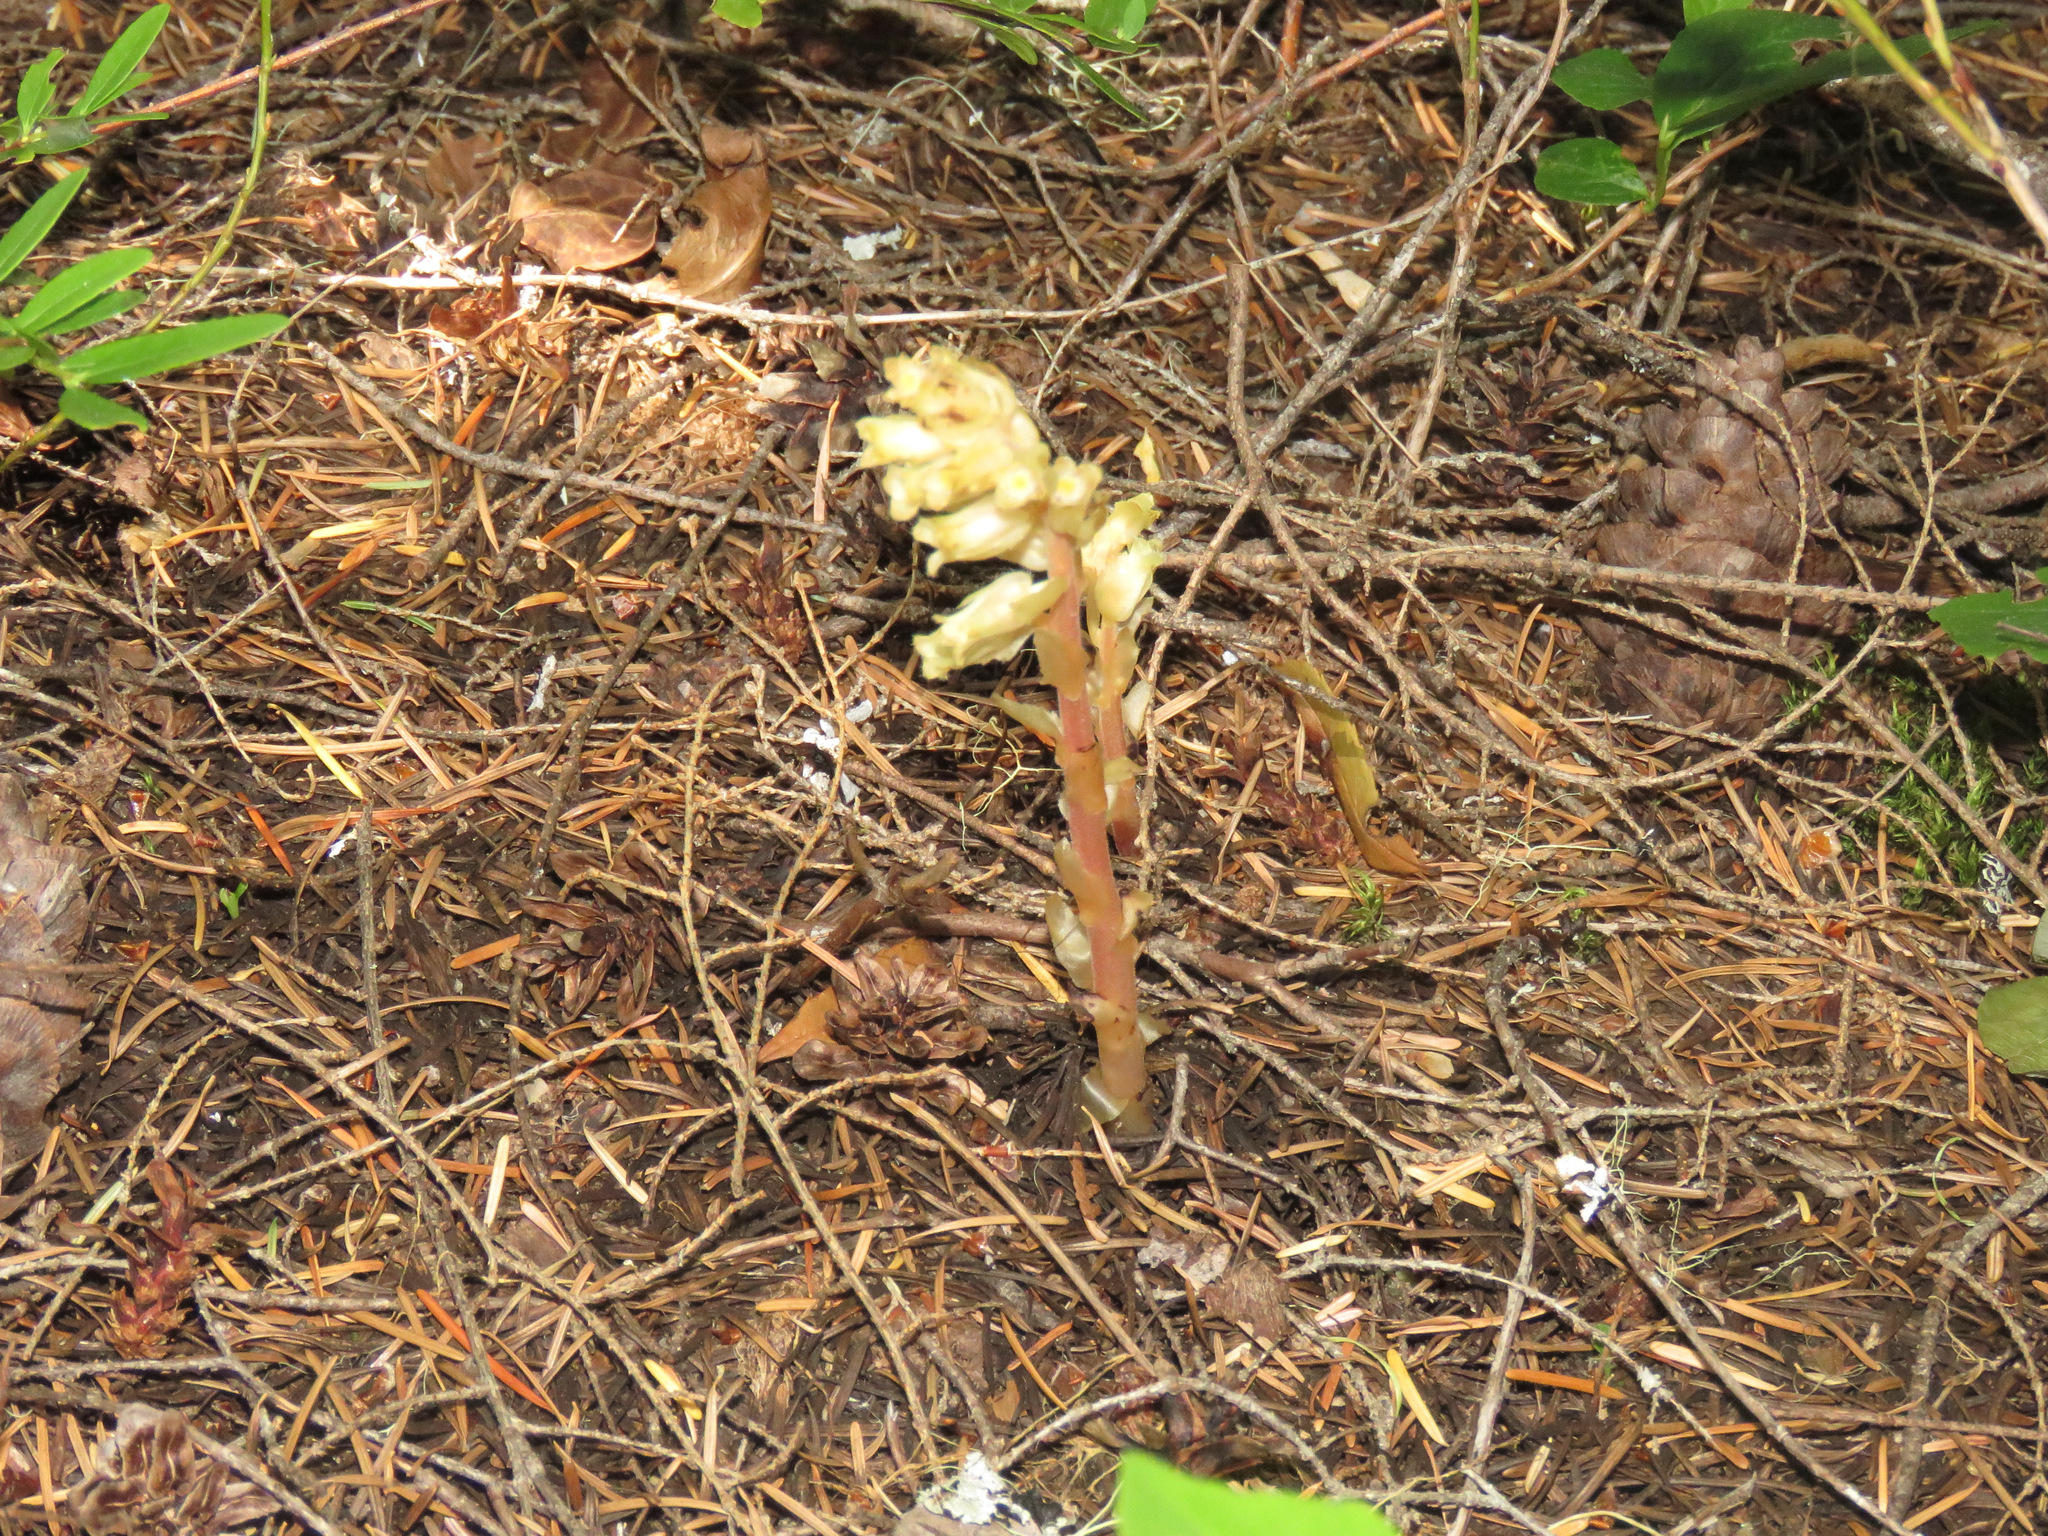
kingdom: Plantae
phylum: Tracheophyta
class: Magnoliopsida
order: Ericales
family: Ericaceae
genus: Hypopitys
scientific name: Hypopitys monotropa
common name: Yellow bird's-nest
